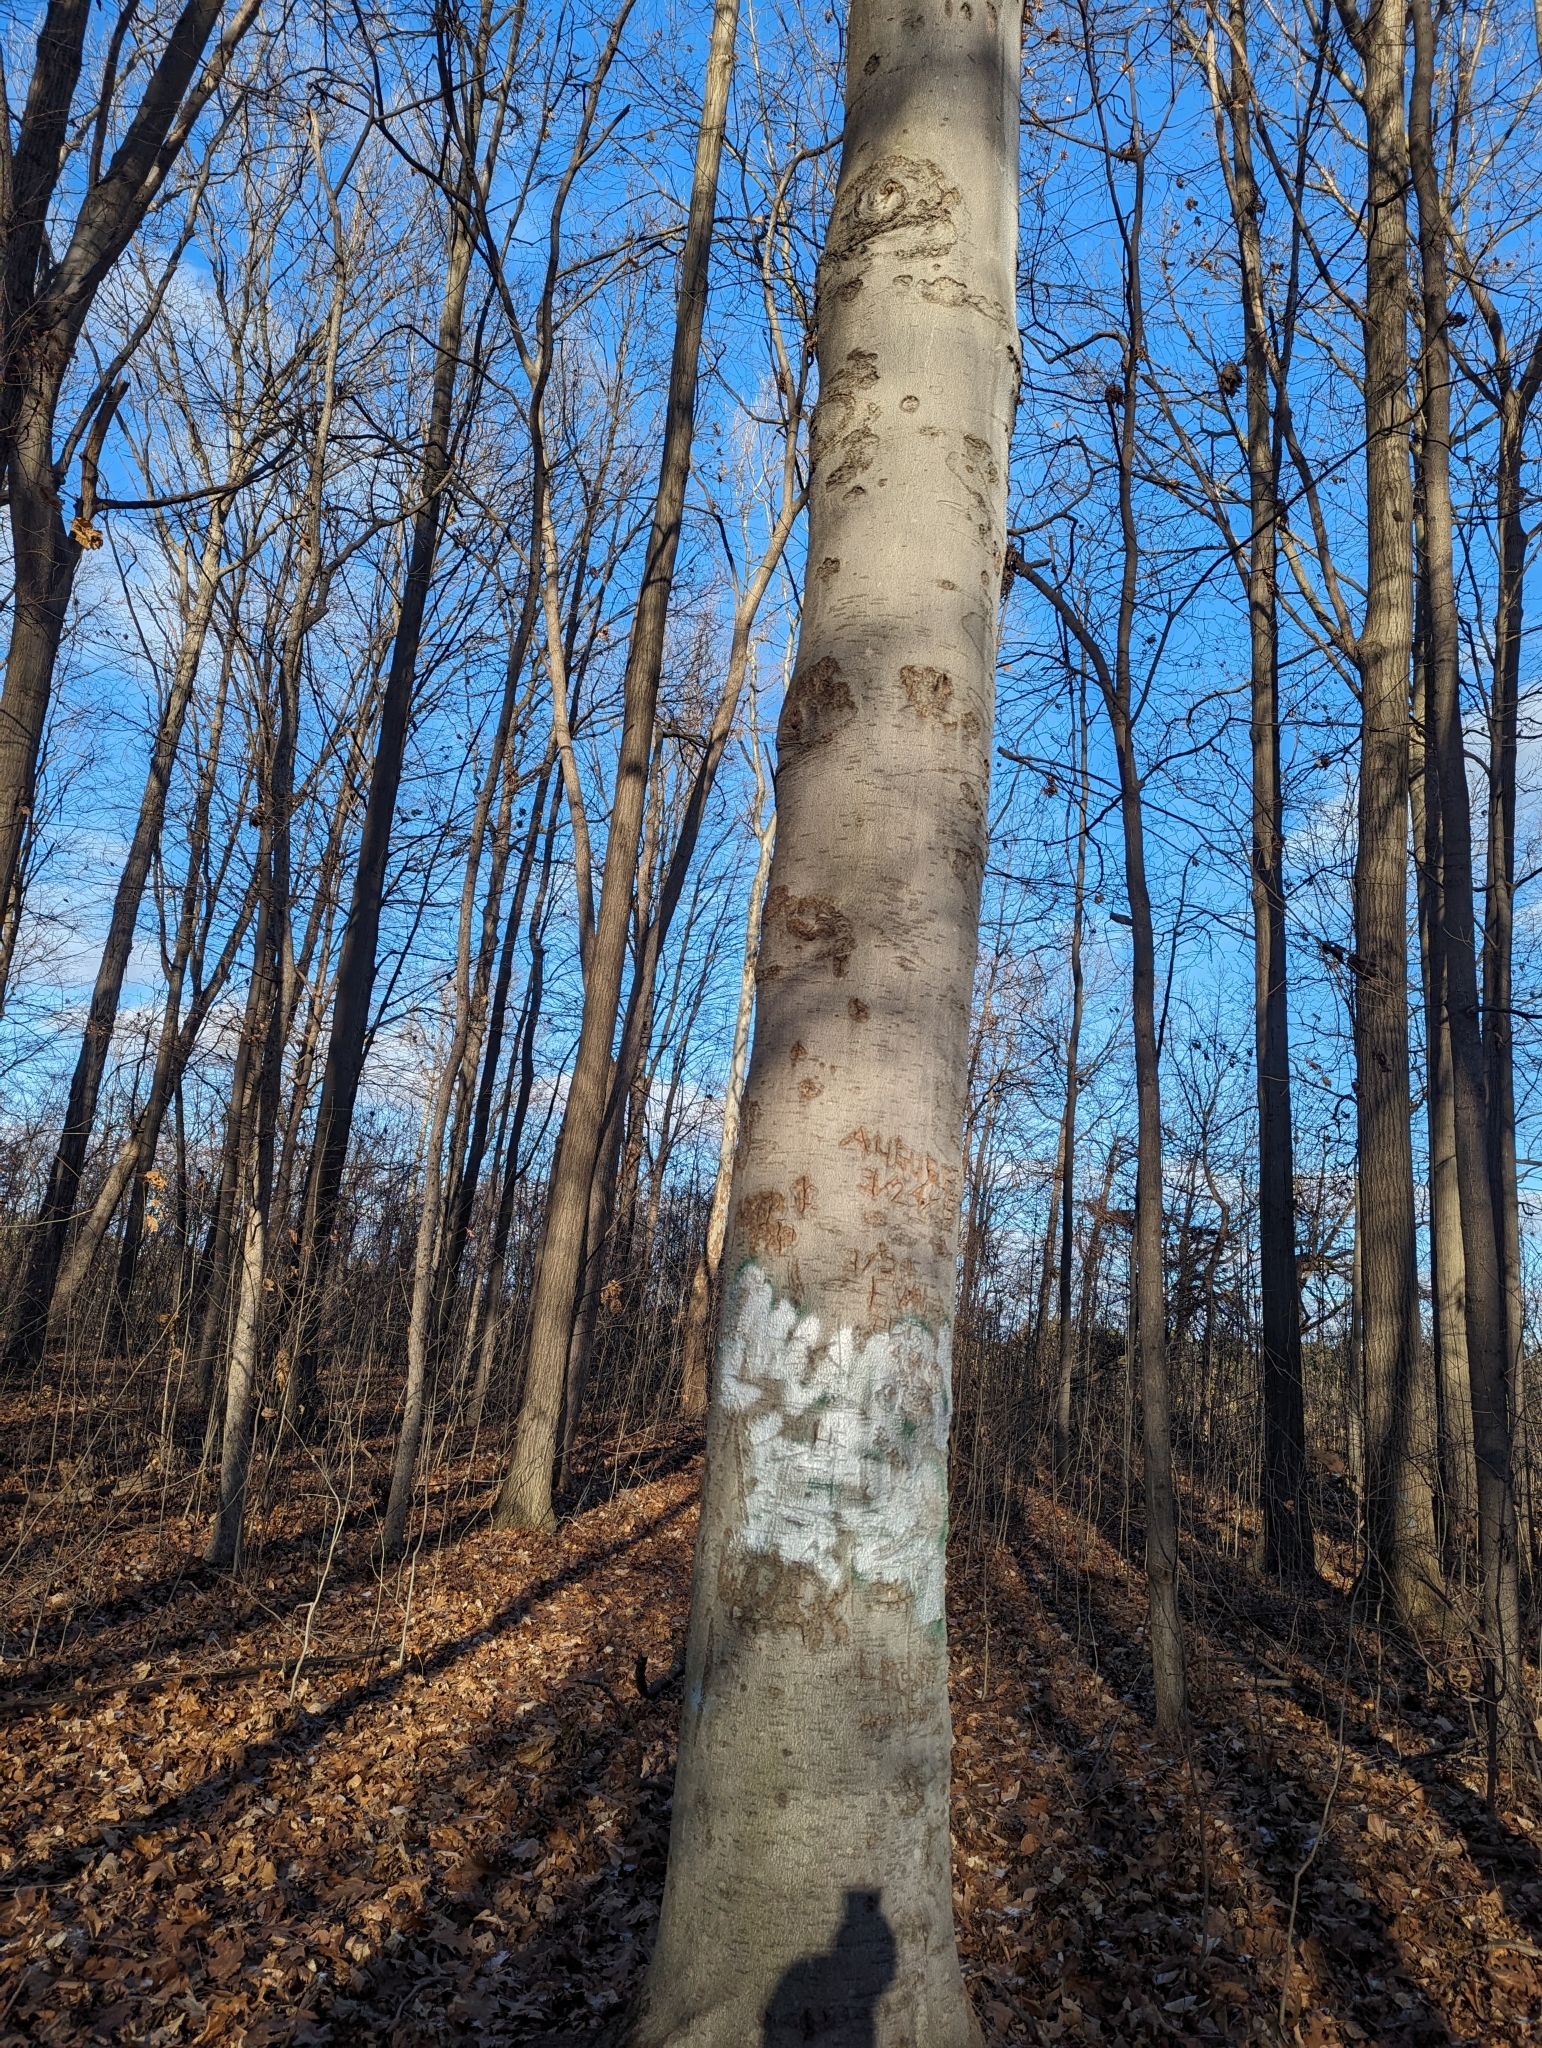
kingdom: Plantae
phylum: Tracheophyta
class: Magnoliopsida
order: Fagales
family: Fagaceae
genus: Fagus
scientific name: Fagus grandifolia
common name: American beech
